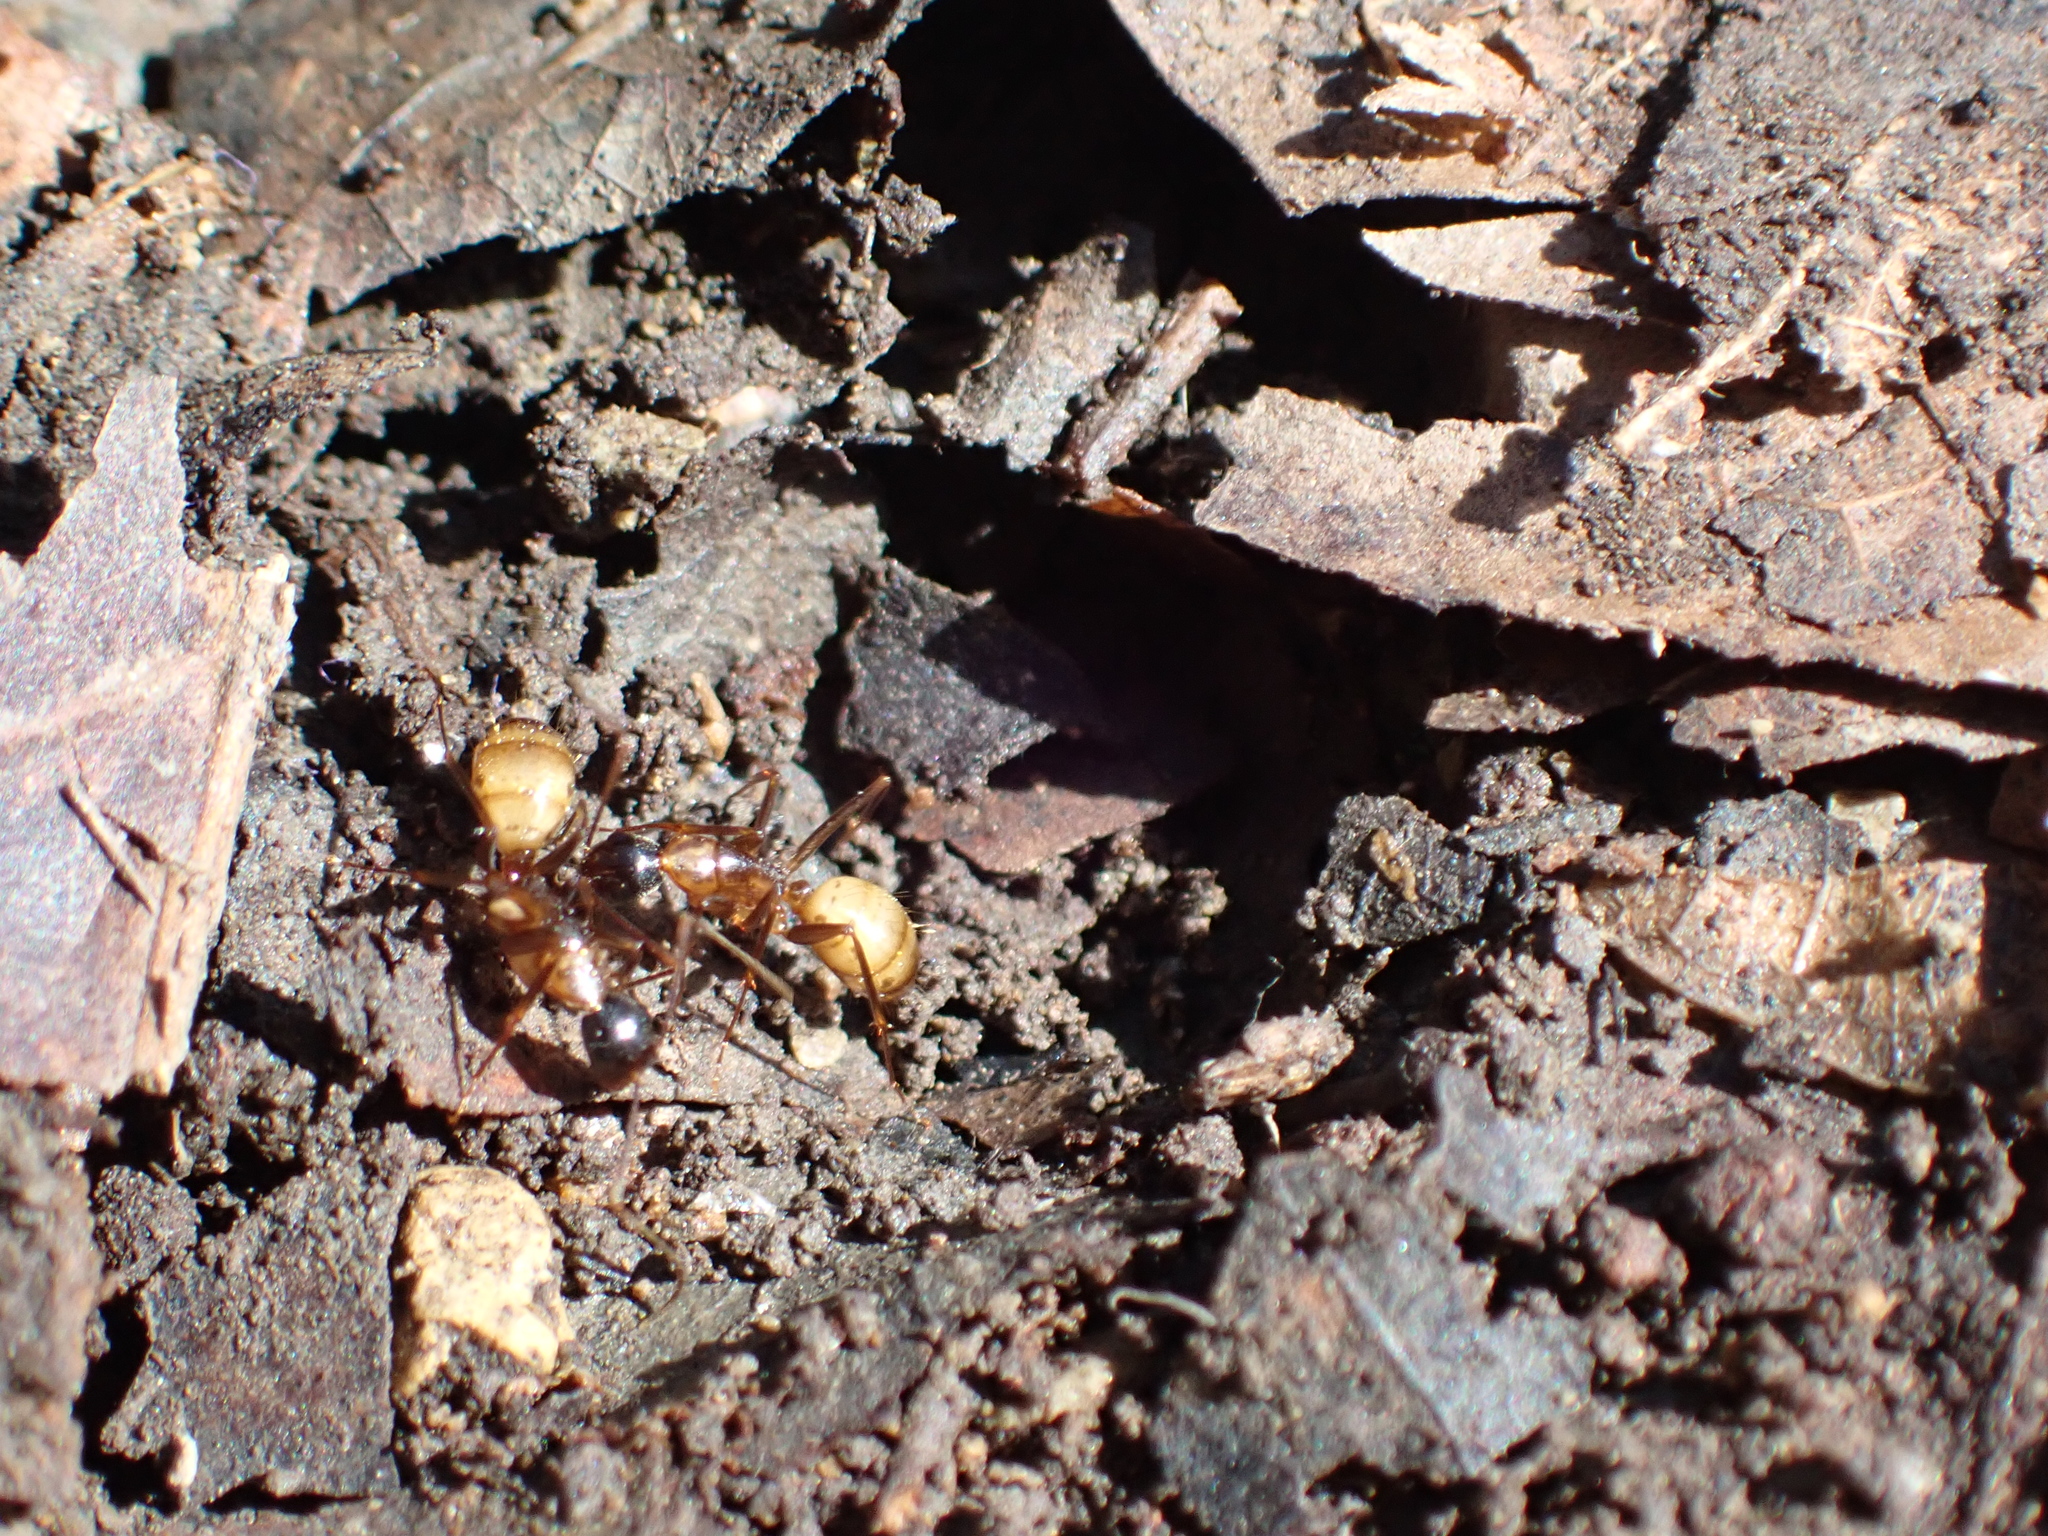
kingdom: Animalia
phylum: Arthropoda
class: Insecta
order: Hymenoptera
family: Formicidae
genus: Camponotus
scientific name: Camponotus americanus
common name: American carpenter ant
